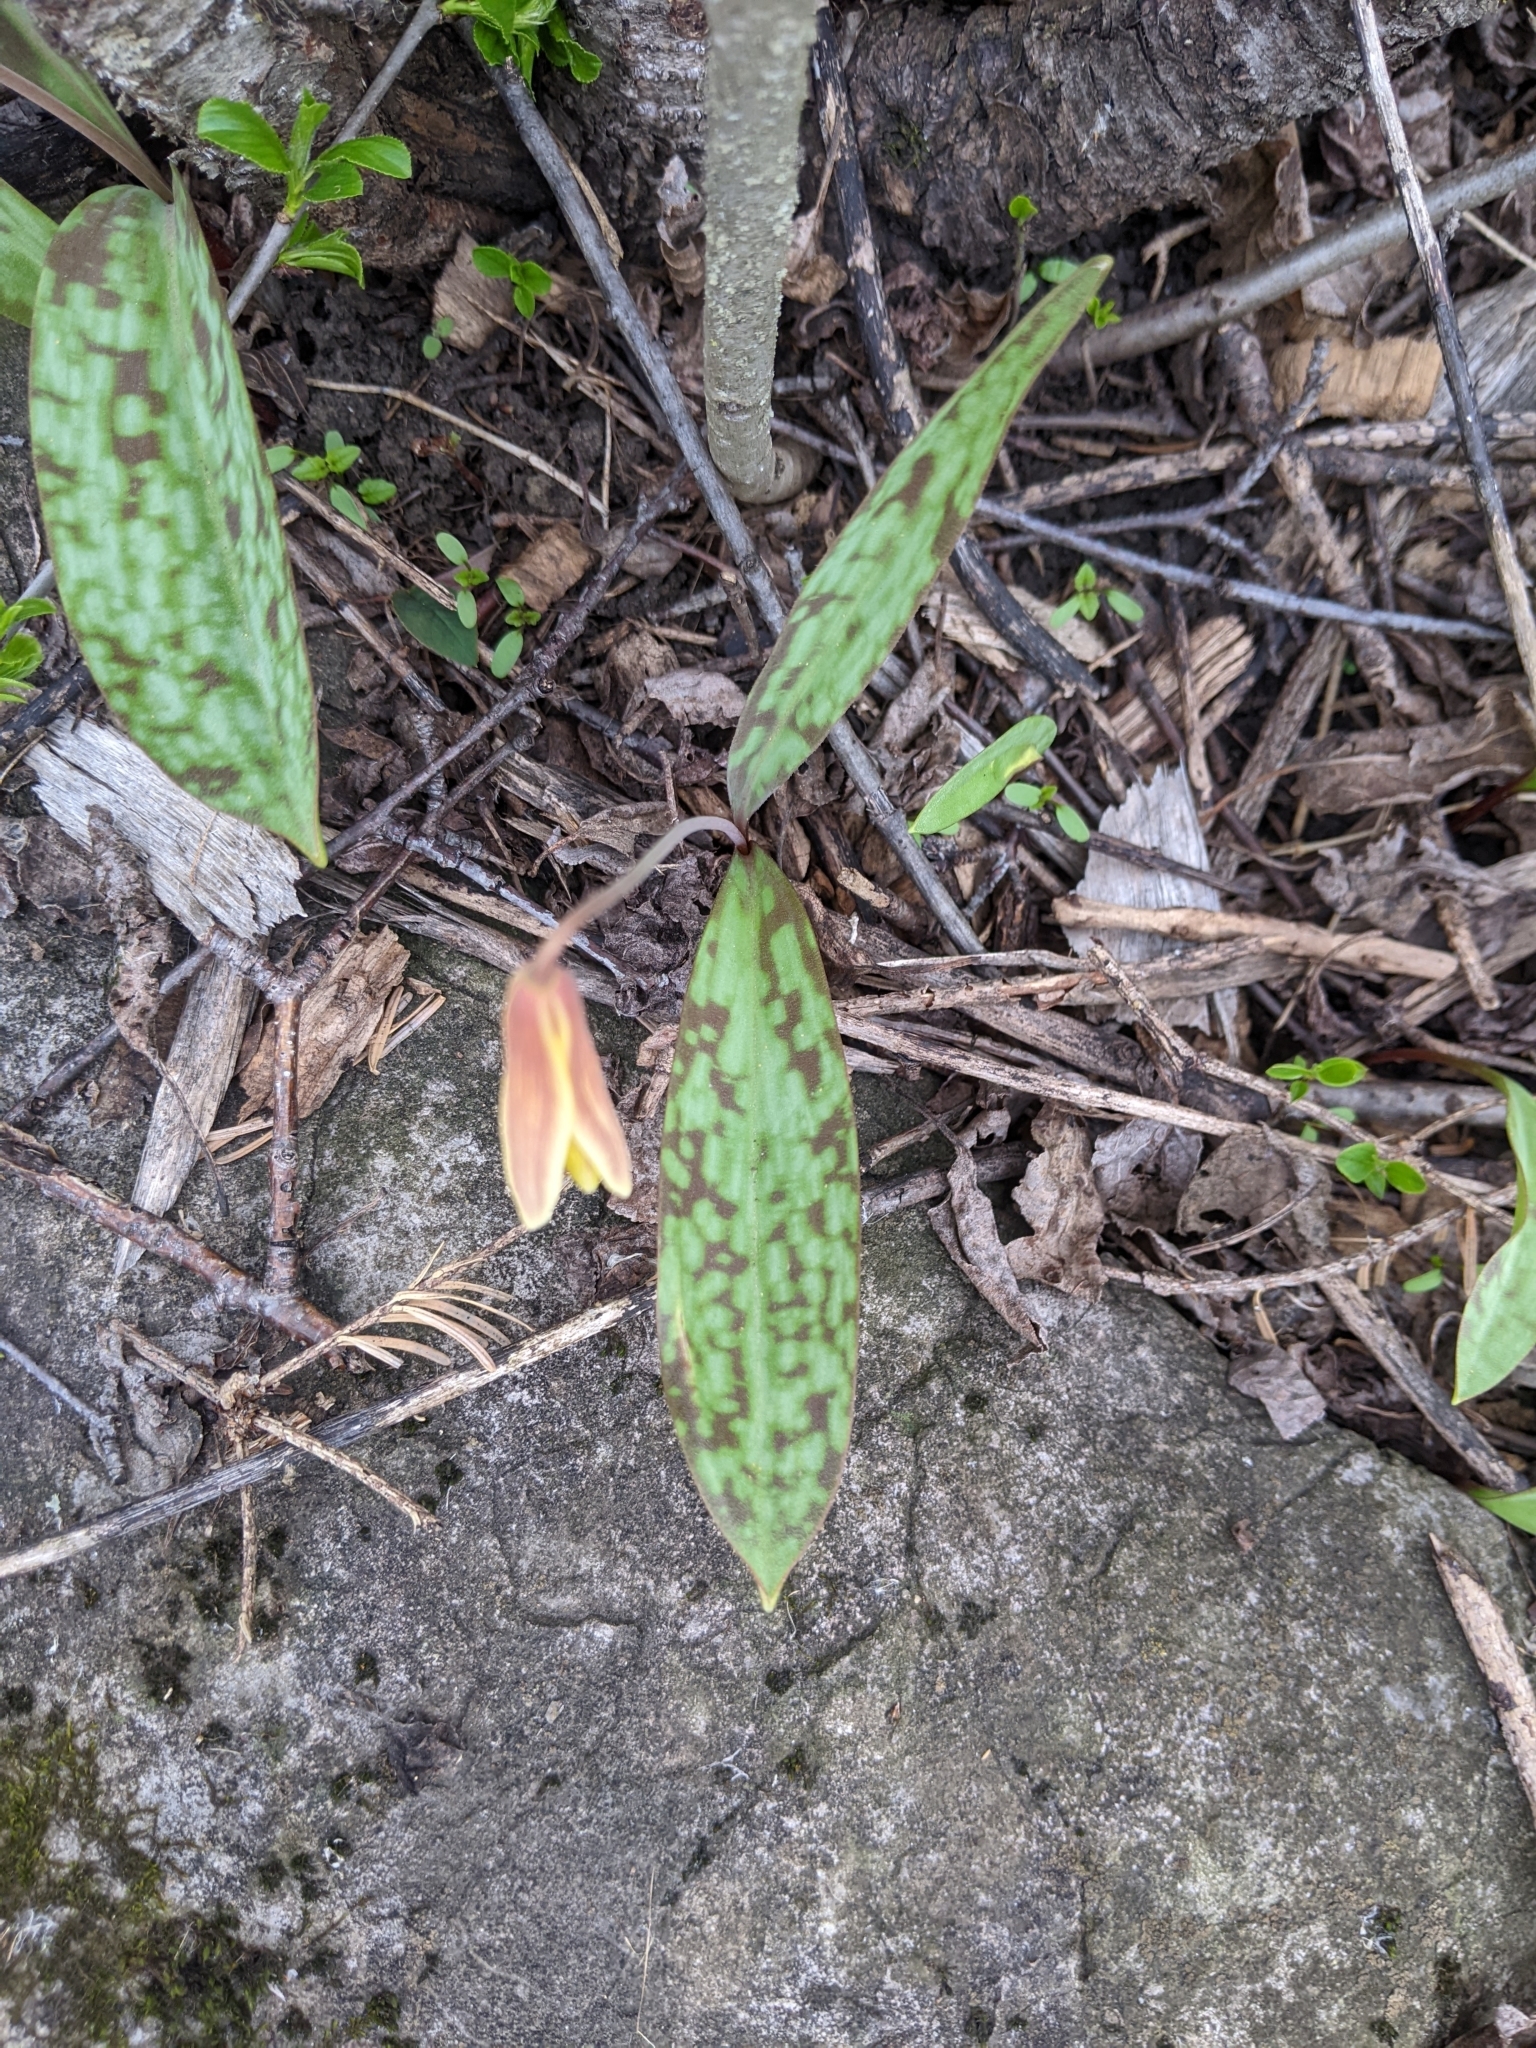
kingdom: Plantae
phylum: Tracheophyta
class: Liliopsida
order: Liliales
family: Liliaceae
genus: Erythronium
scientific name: Erythronium americanum
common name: Yellow adder's-tongue
